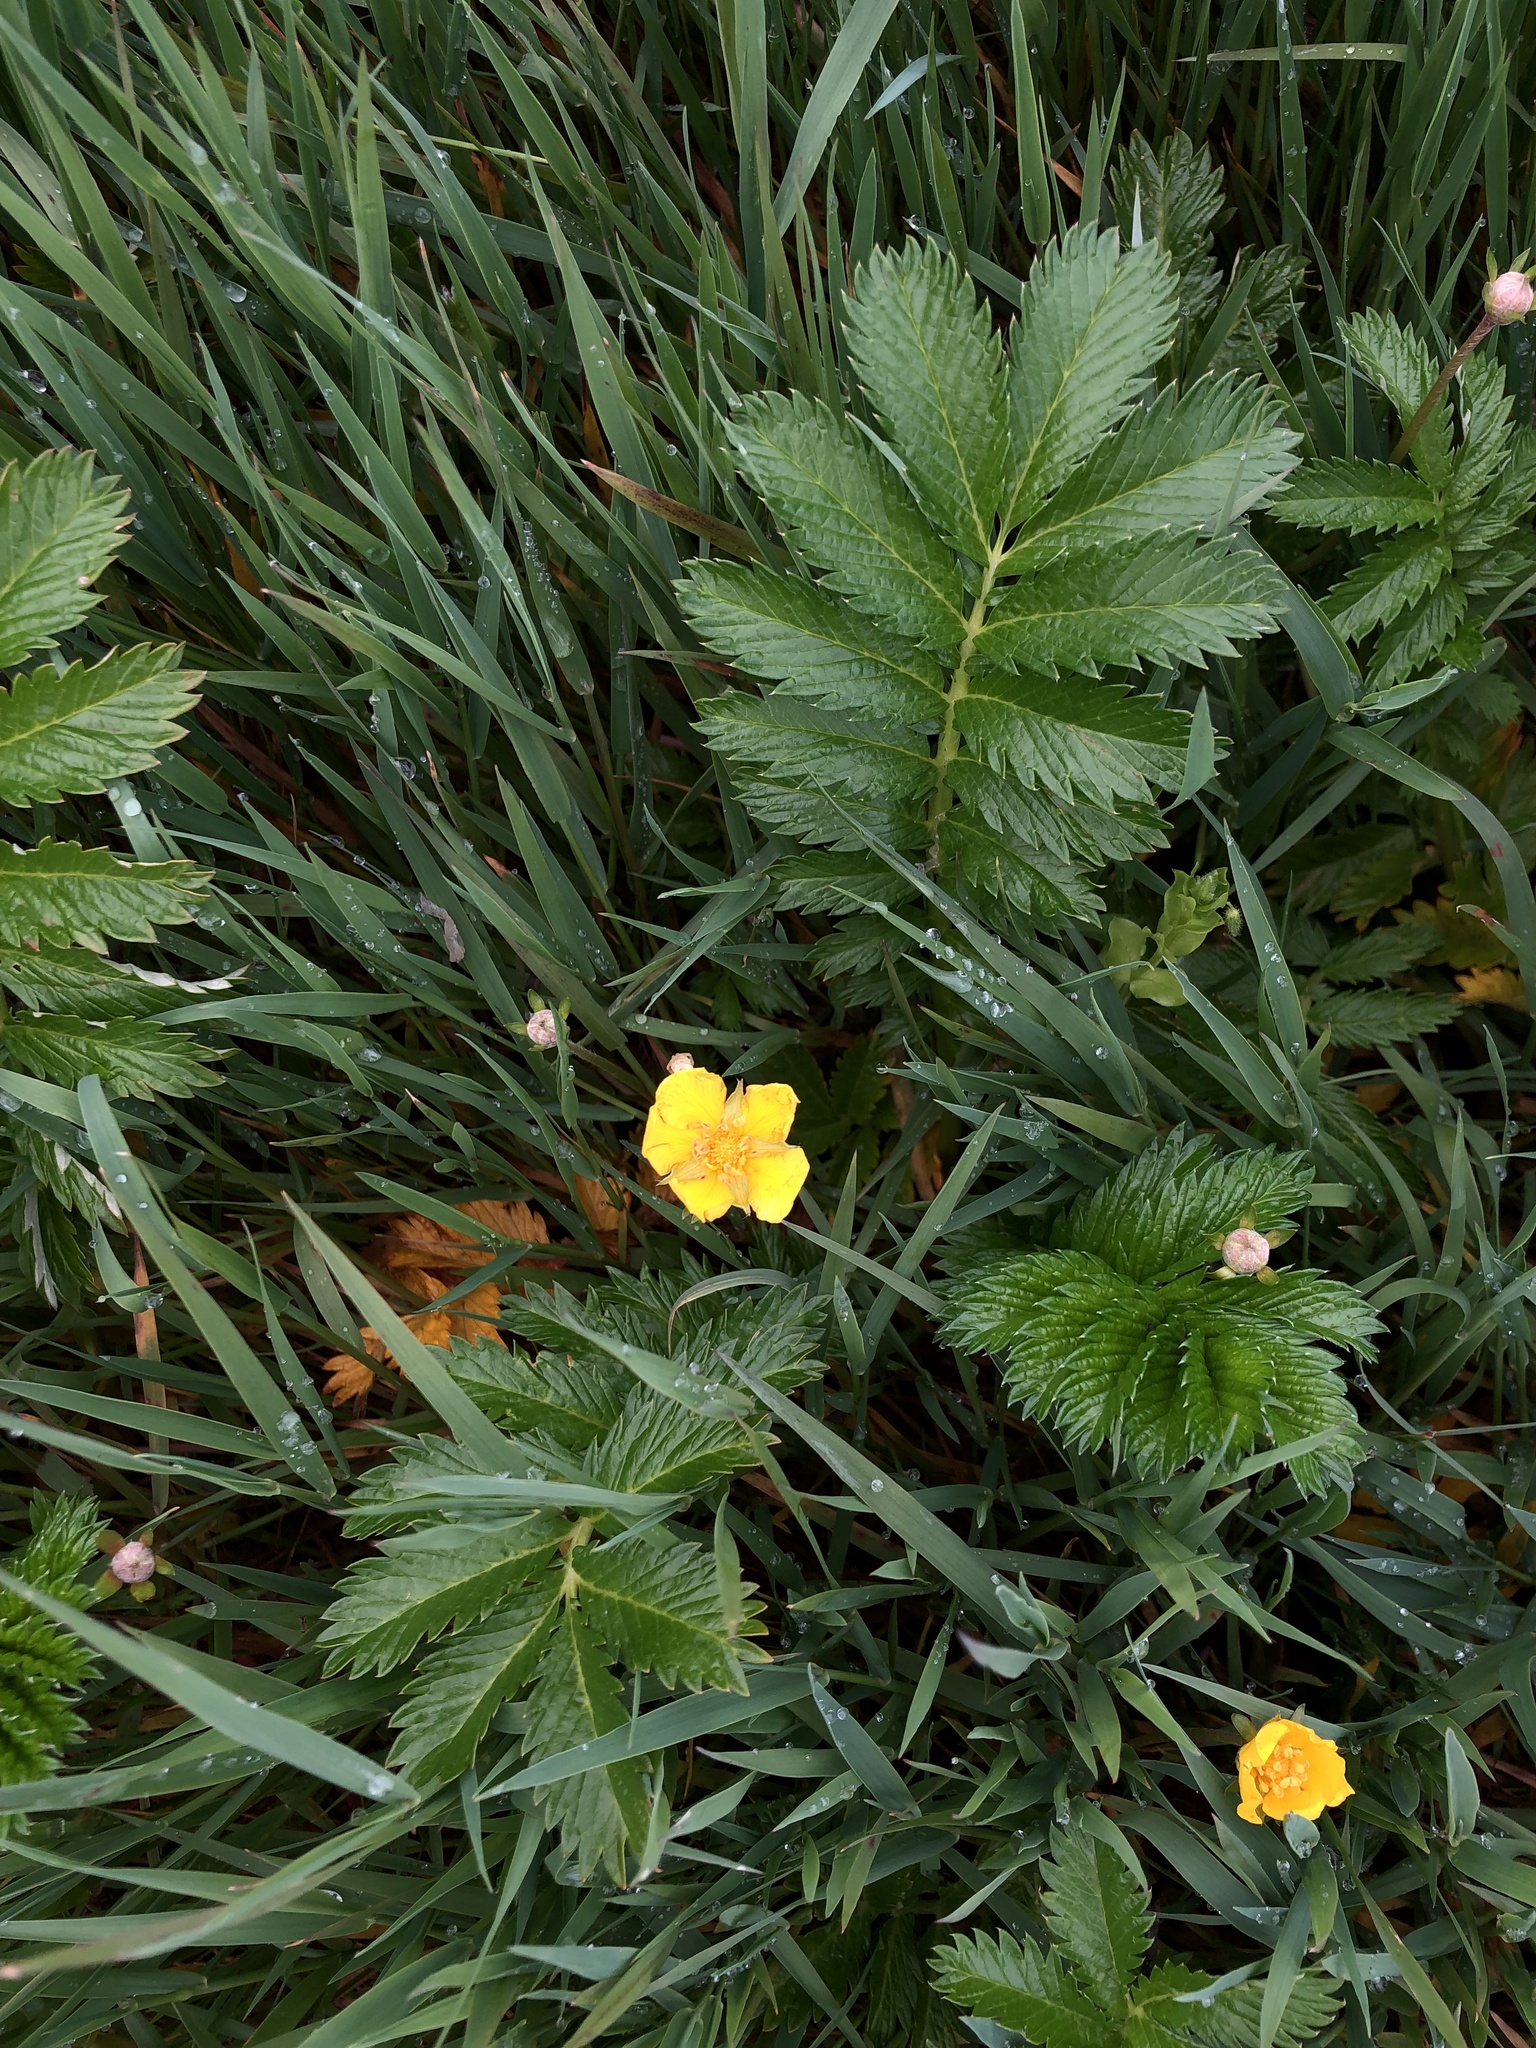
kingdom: Plantae
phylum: Tracheophyta
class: Magnoliopsida
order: Rosales
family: Rosaceae
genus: Argentina
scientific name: Argentina anserina
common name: Common silverweed
